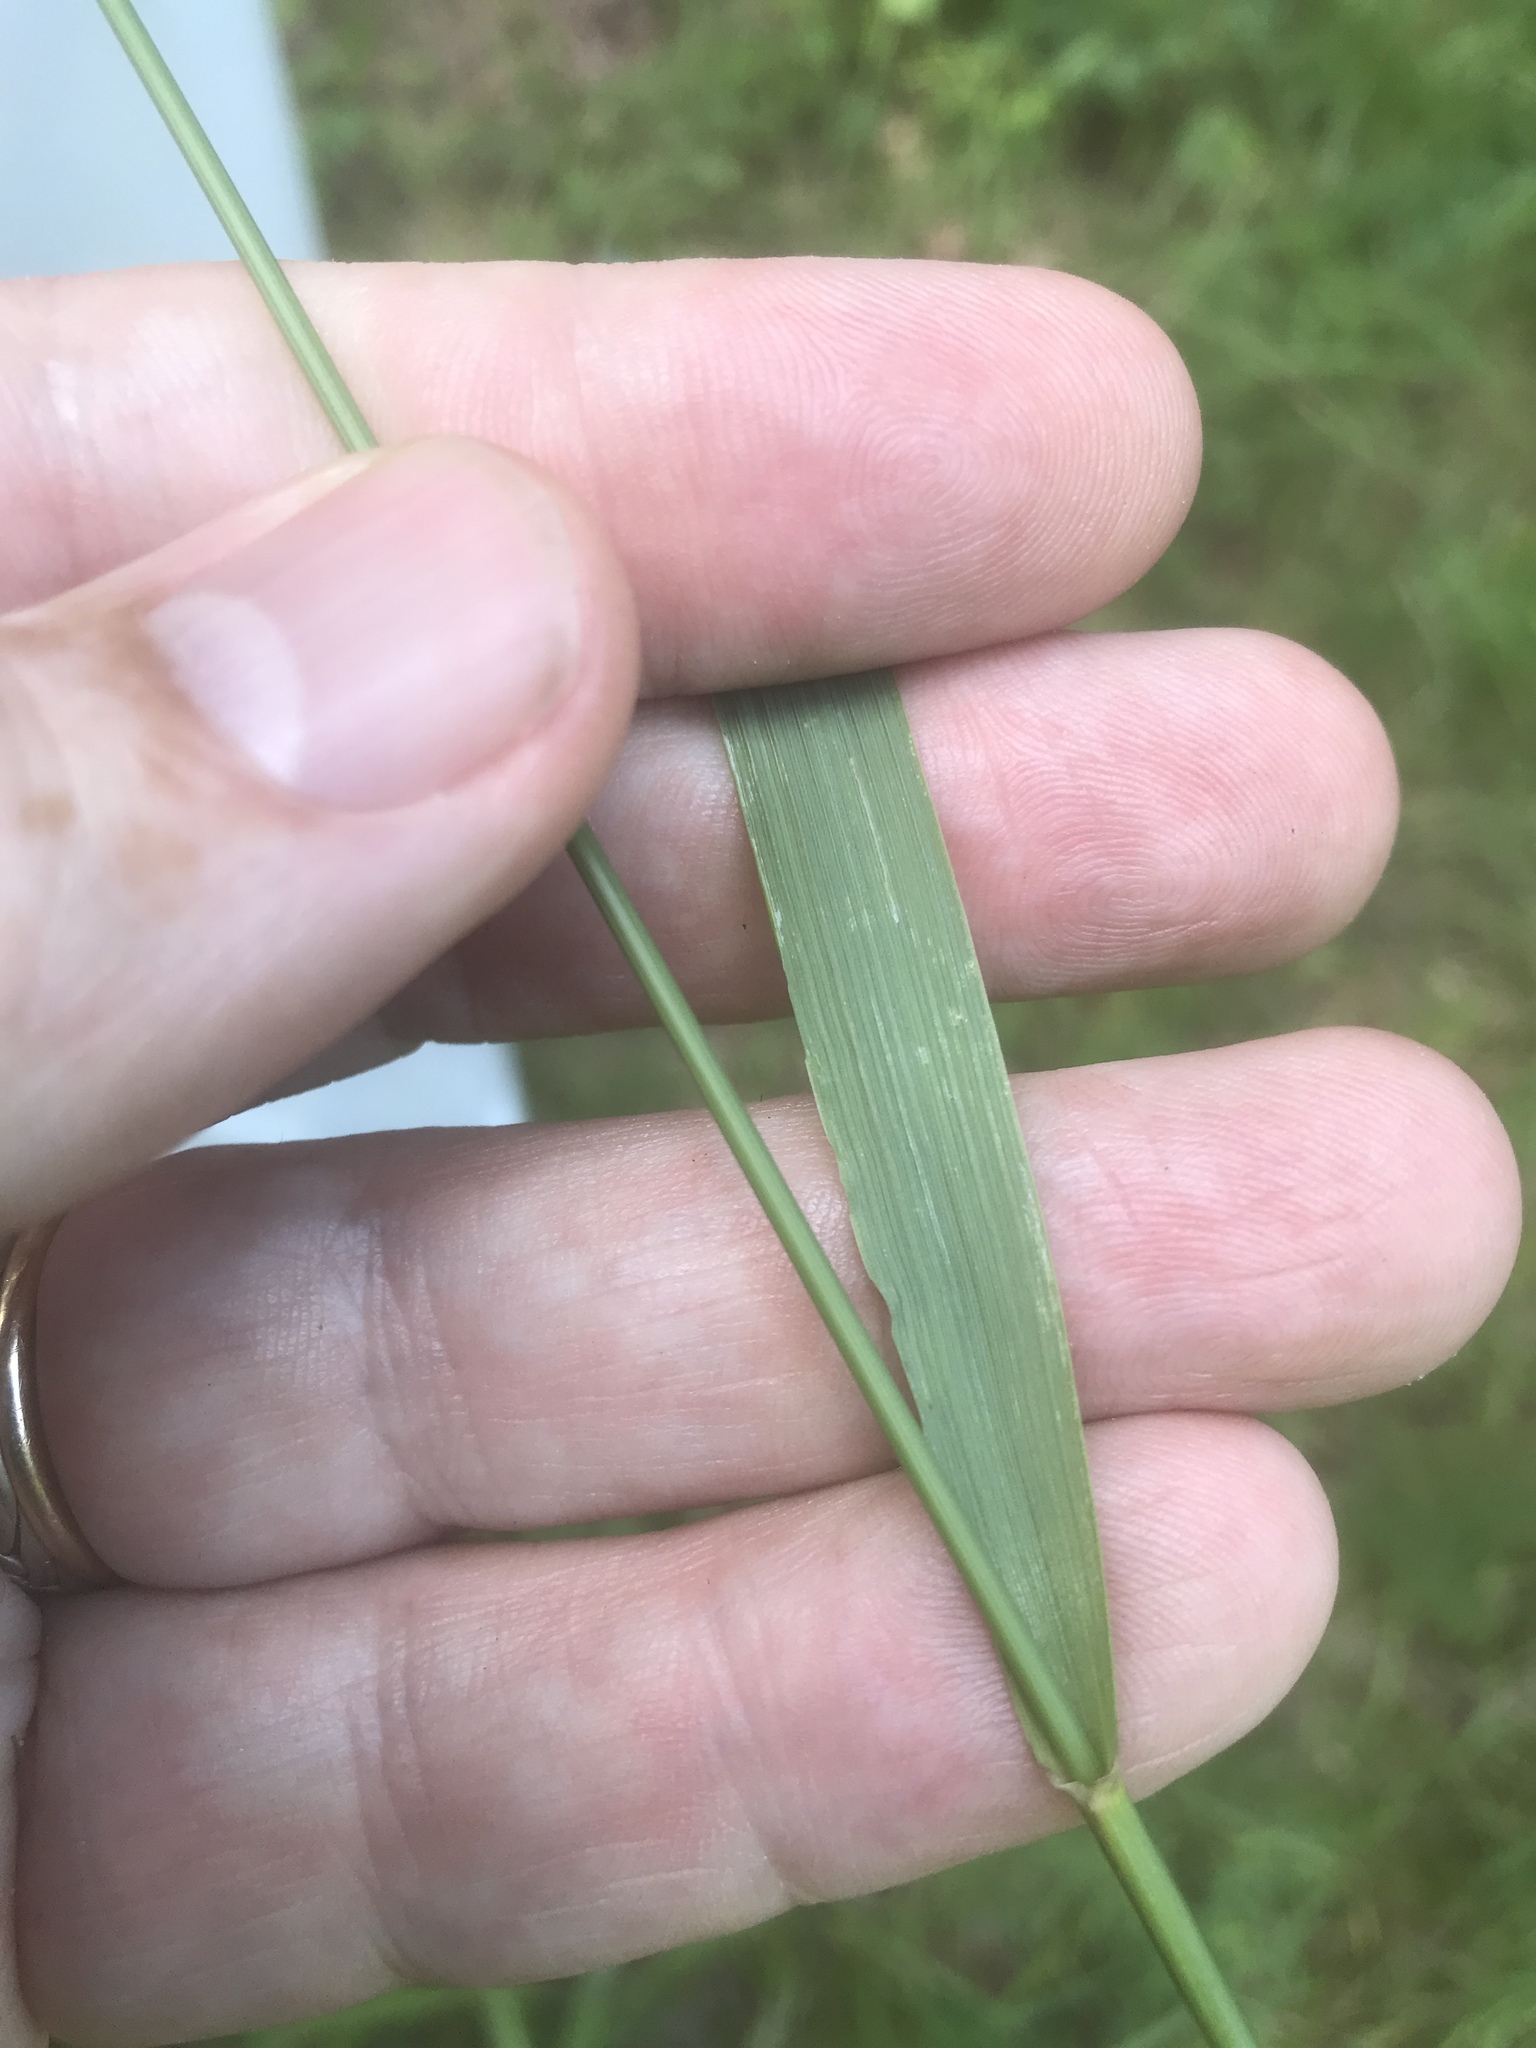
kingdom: Plantae
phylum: Tracheophyta
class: Liliopsida
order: Poales
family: Poaceae
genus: Festuca
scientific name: Festuca paradoxa
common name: Cluster fescue
